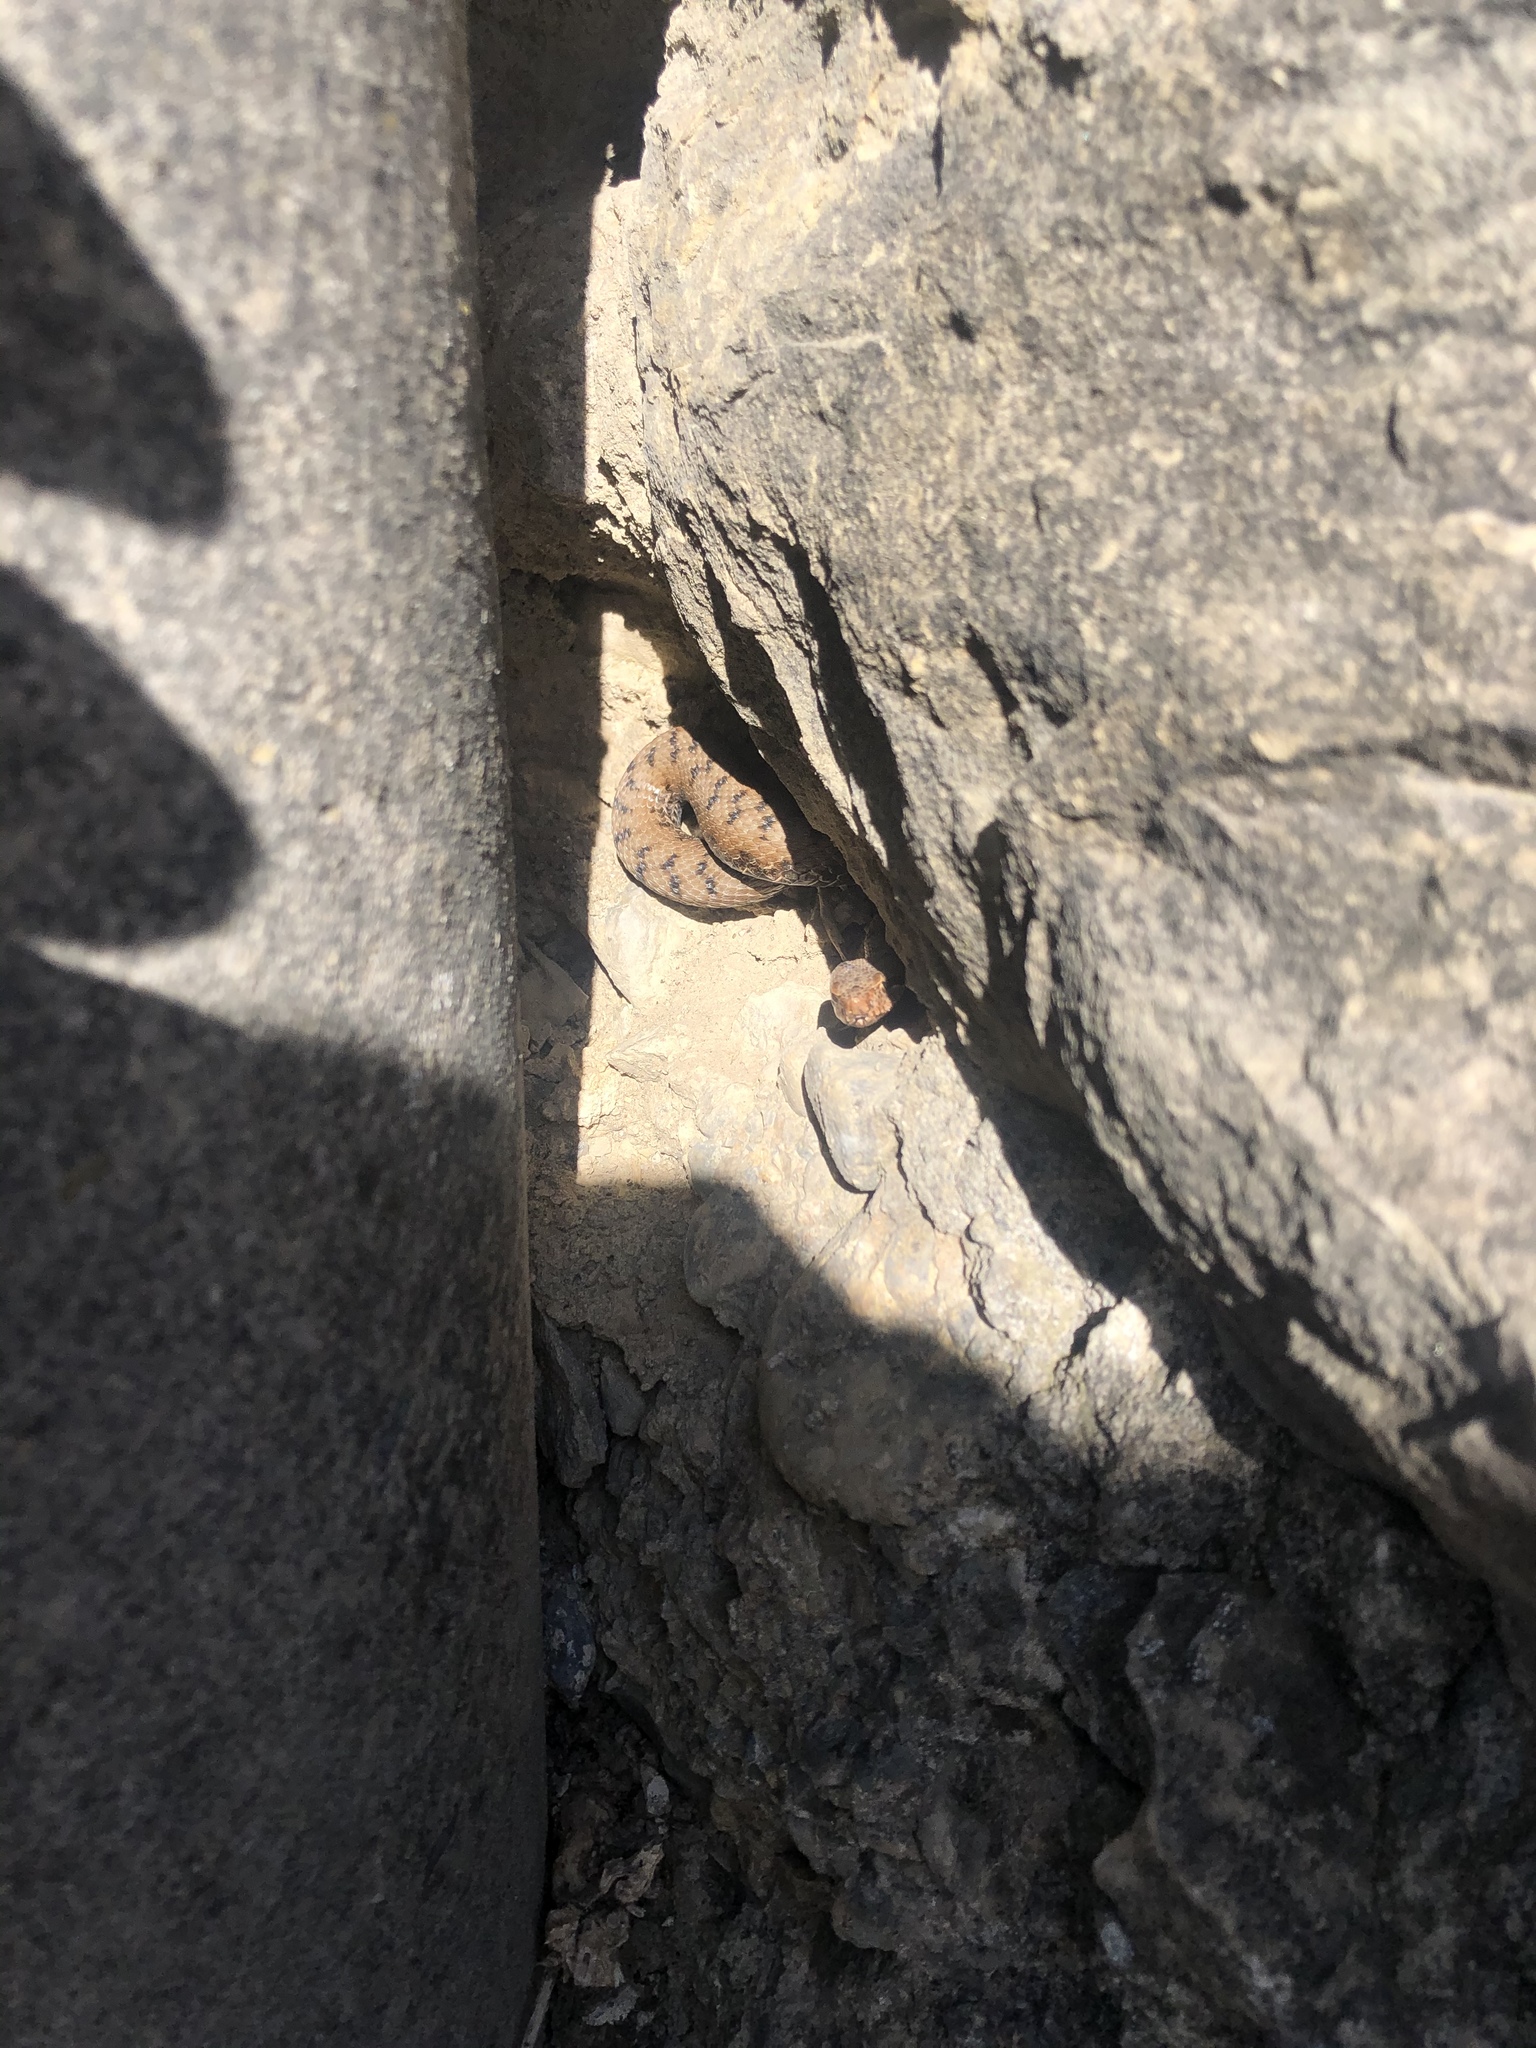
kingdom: Animalia
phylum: Chordata
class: Squamata
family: Viperidae
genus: Vipera
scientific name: Vipera aspis
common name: Asp viper
